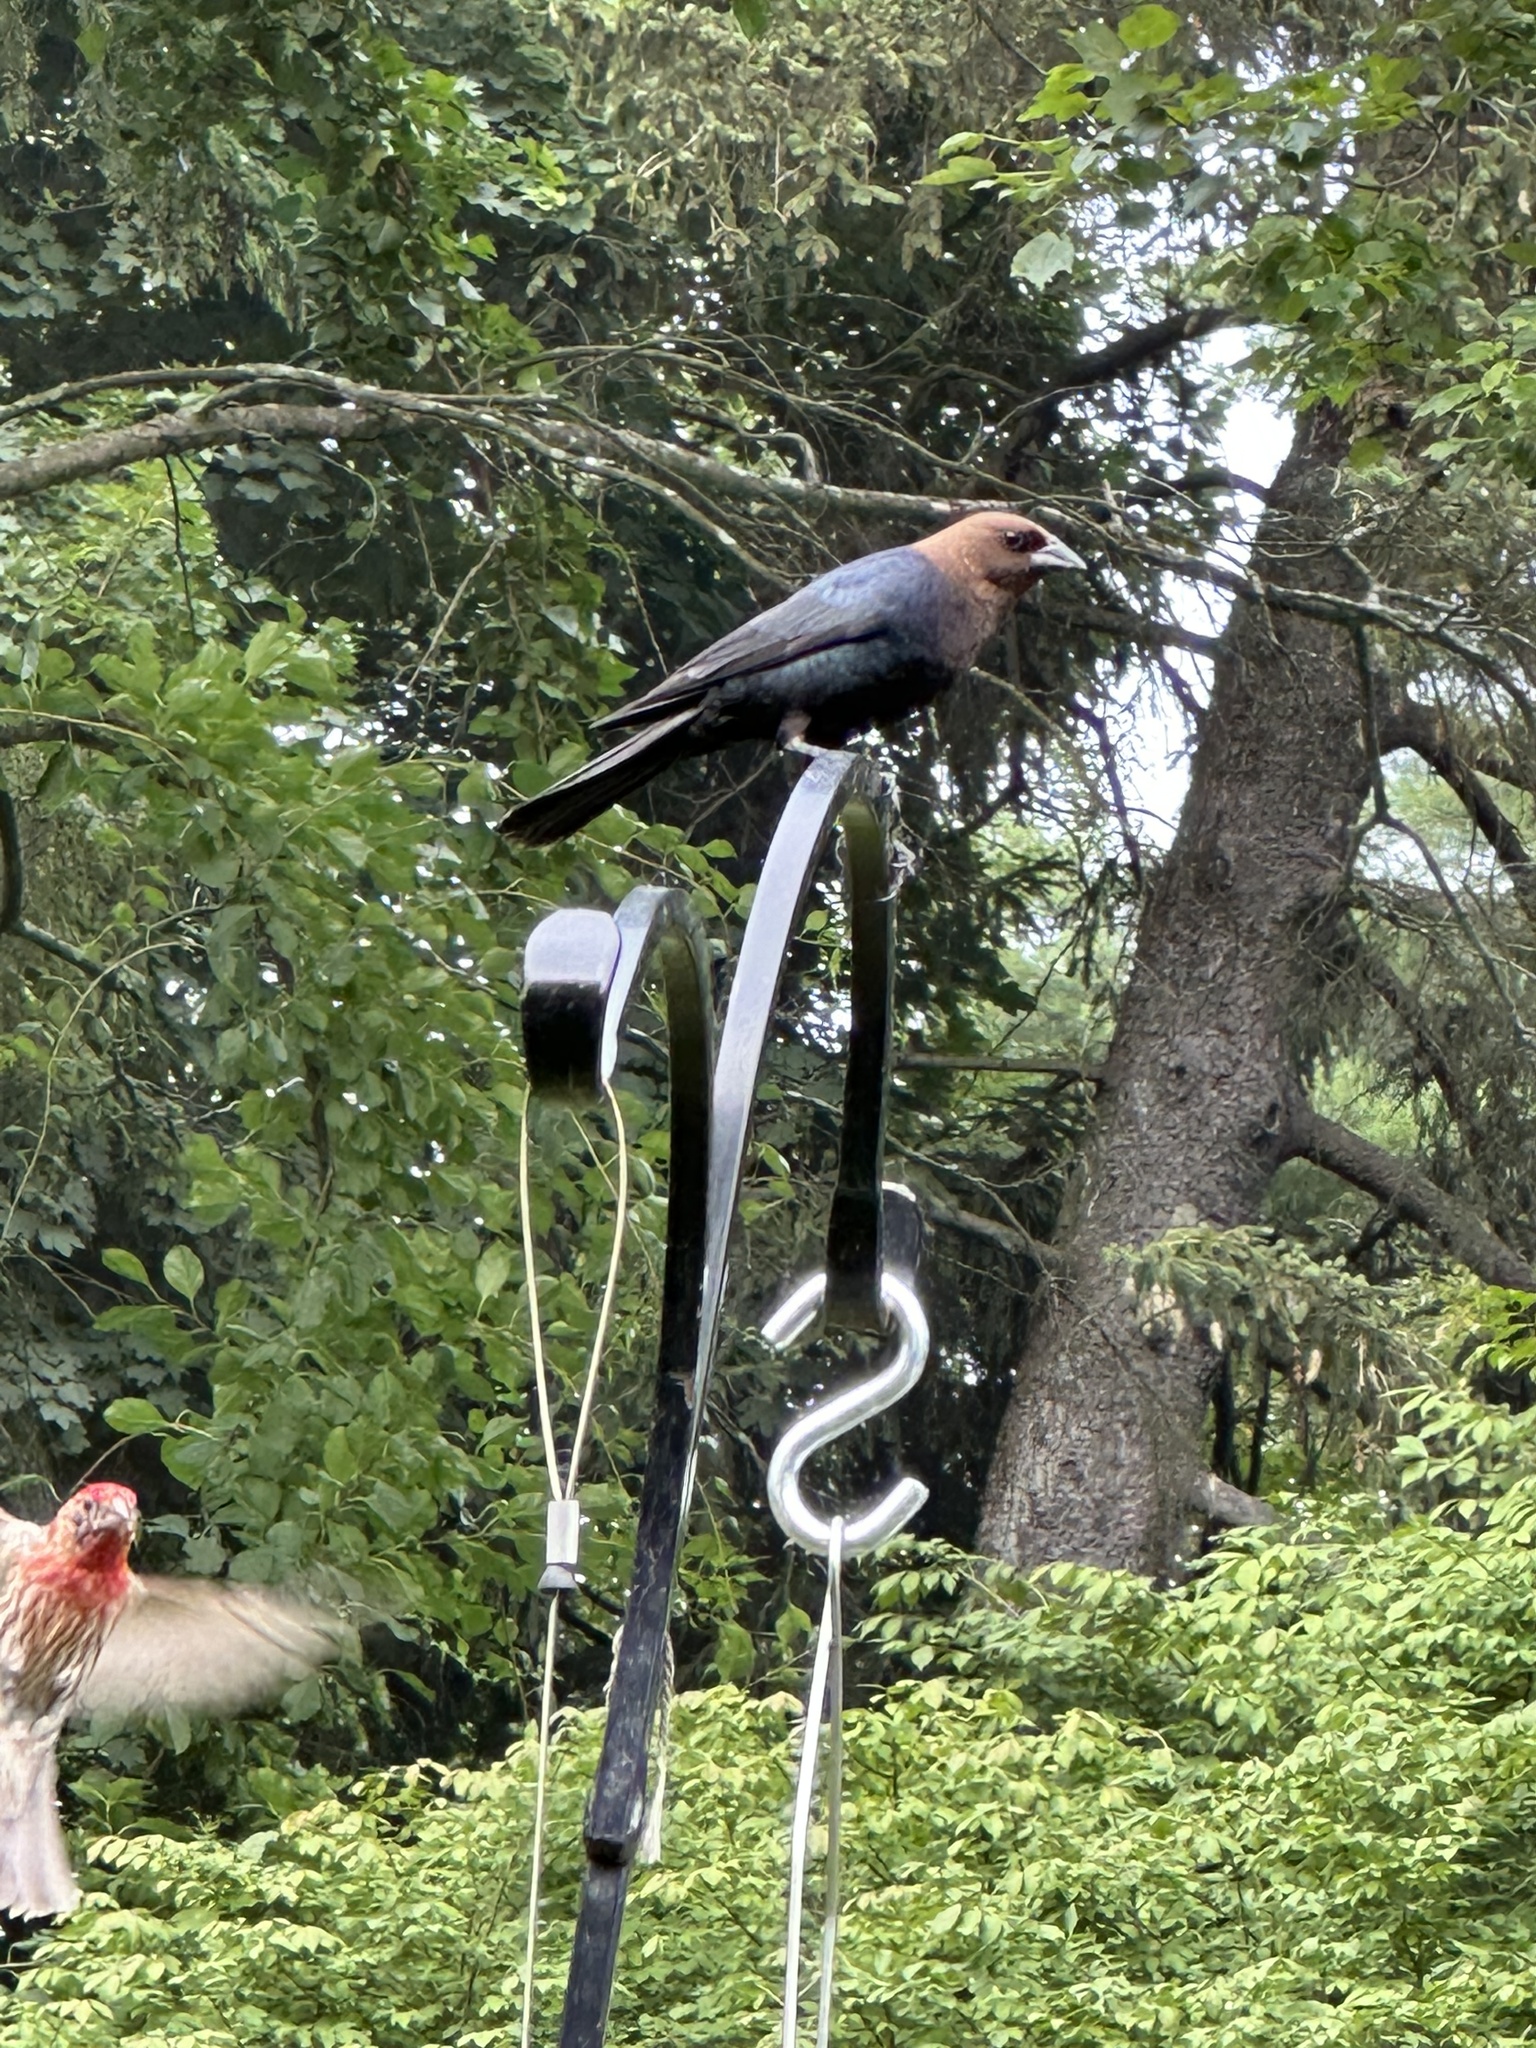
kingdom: Animalia
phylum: Chordata
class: Aves
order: Passeriformes
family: Icteridae
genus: Molothrus
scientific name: Molothrus ater
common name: Brown-headed cowbird
